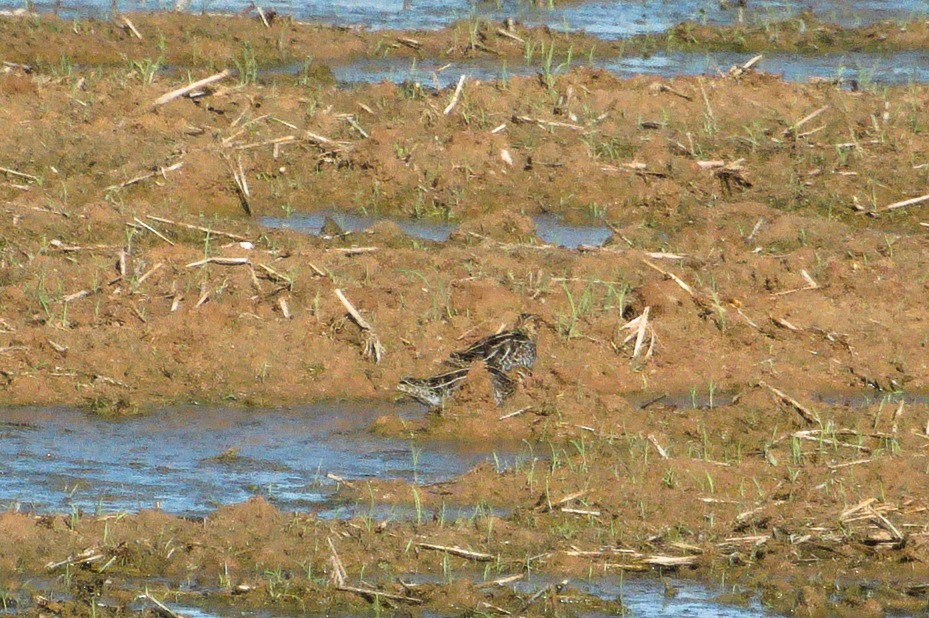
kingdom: Animalia
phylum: Chordata
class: Aves
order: Charadriiformes
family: Scolopacidae
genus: Gallinago
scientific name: Gallinago delicata
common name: Wilson's snipe
